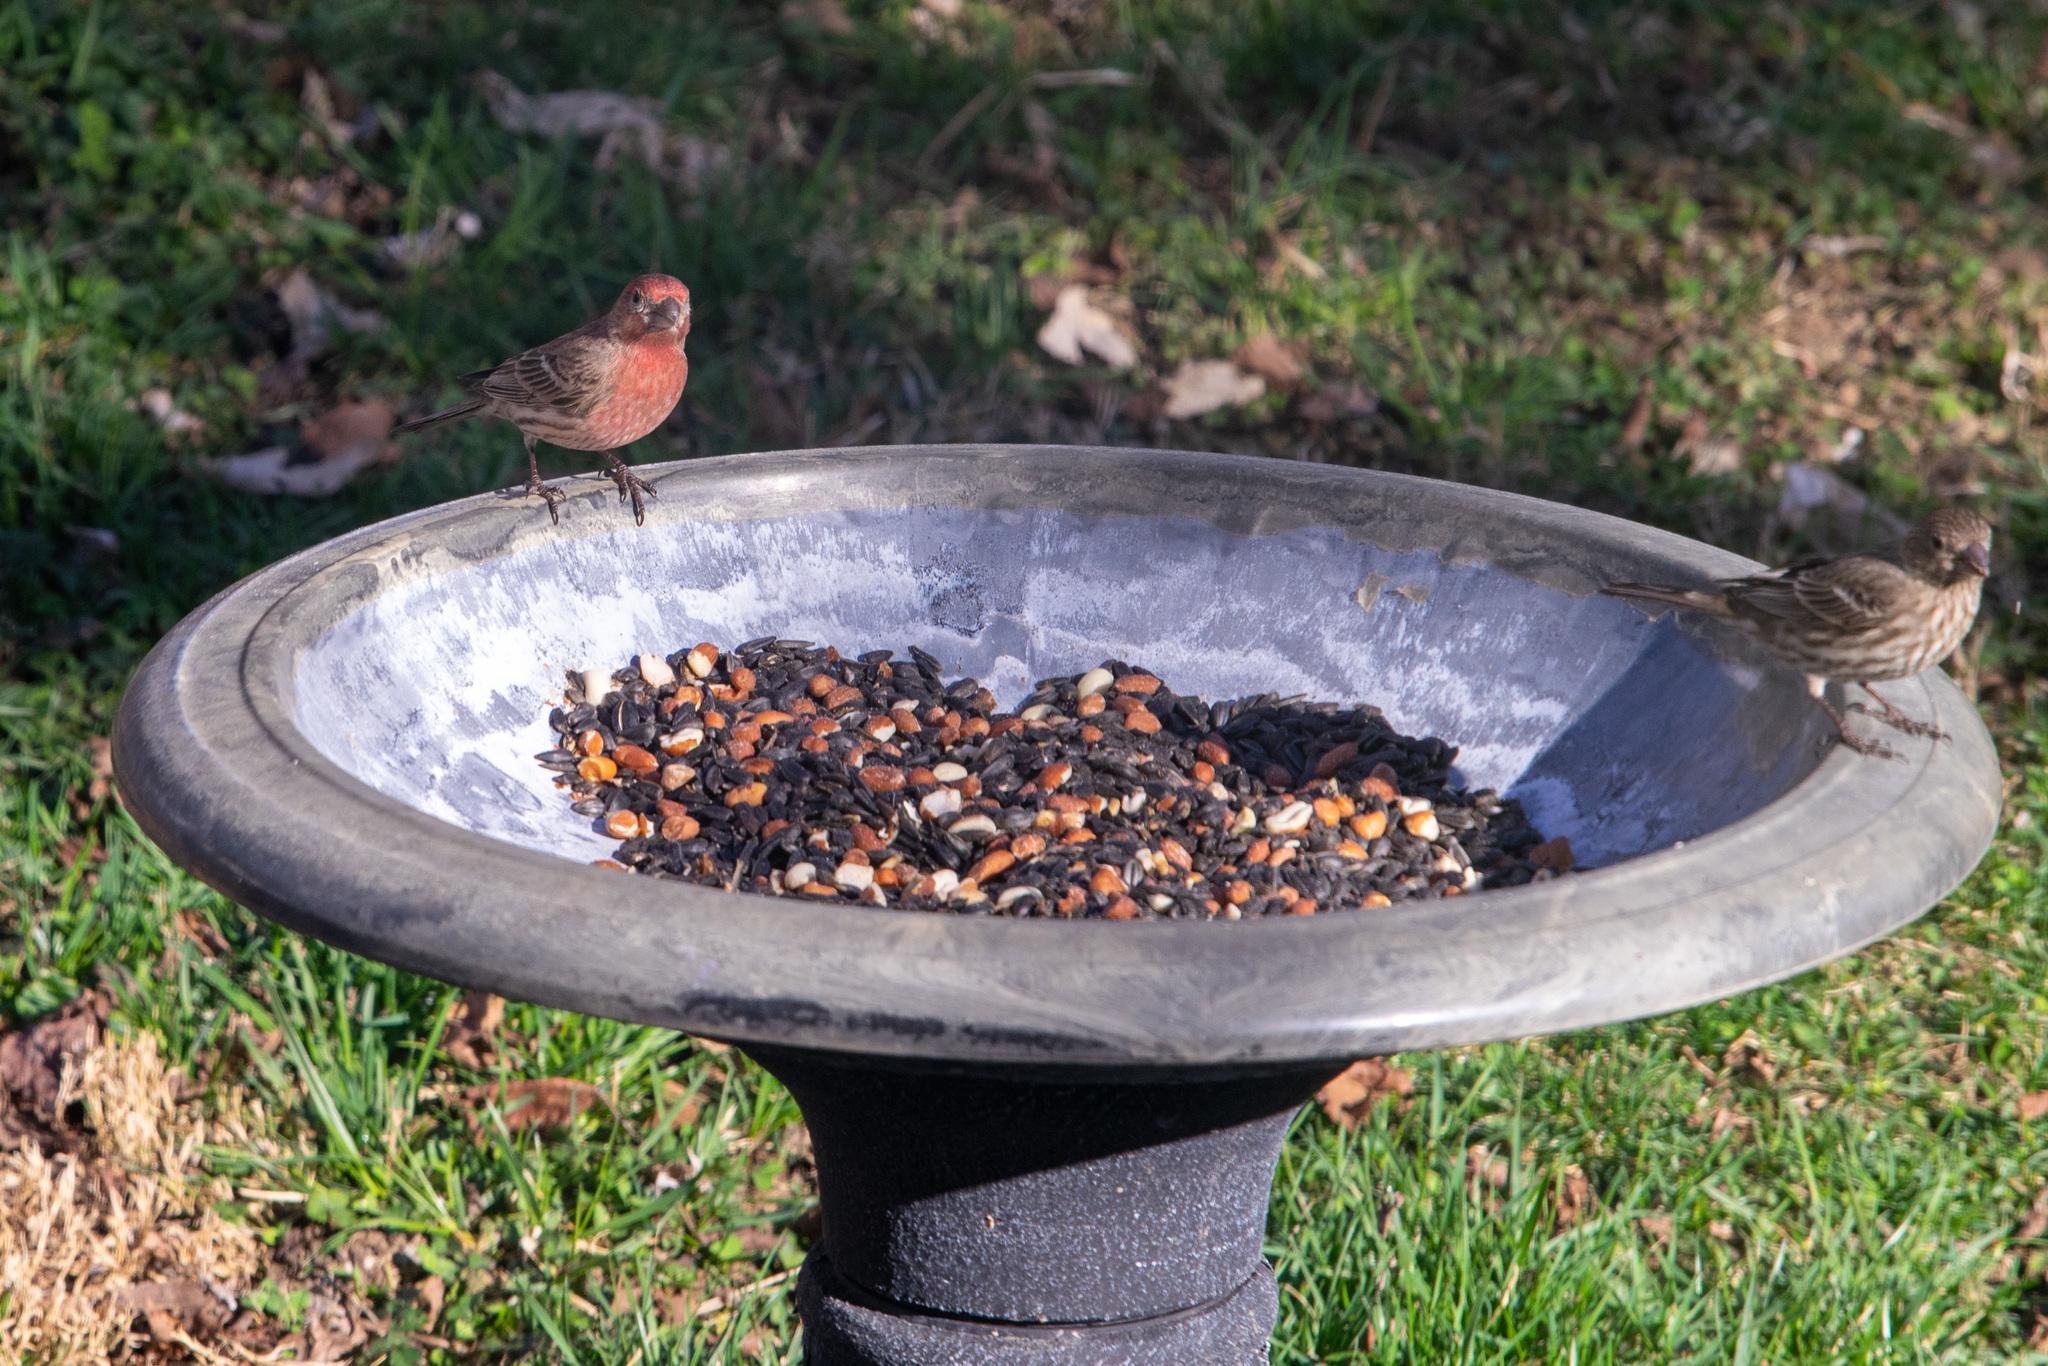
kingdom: Animalia
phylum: Chordata
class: Aves
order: Passeriformes
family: Fringillidae
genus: Haemorhous
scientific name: Haemorhous mexicanus
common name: House finch
